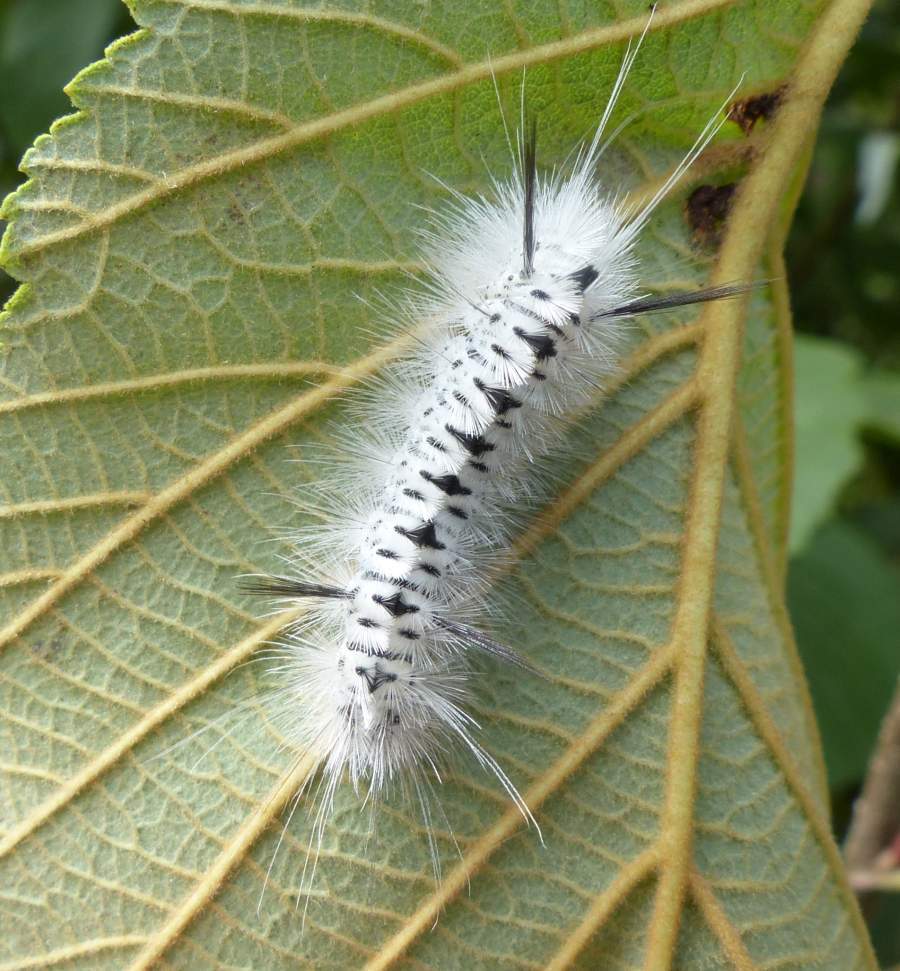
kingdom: Animalia
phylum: Arthropoda
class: Insecta
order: Lepidoptera
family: Erebidae
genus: Lophocampa
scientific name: Lophocampa caryae
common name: Hickory tussock moth
